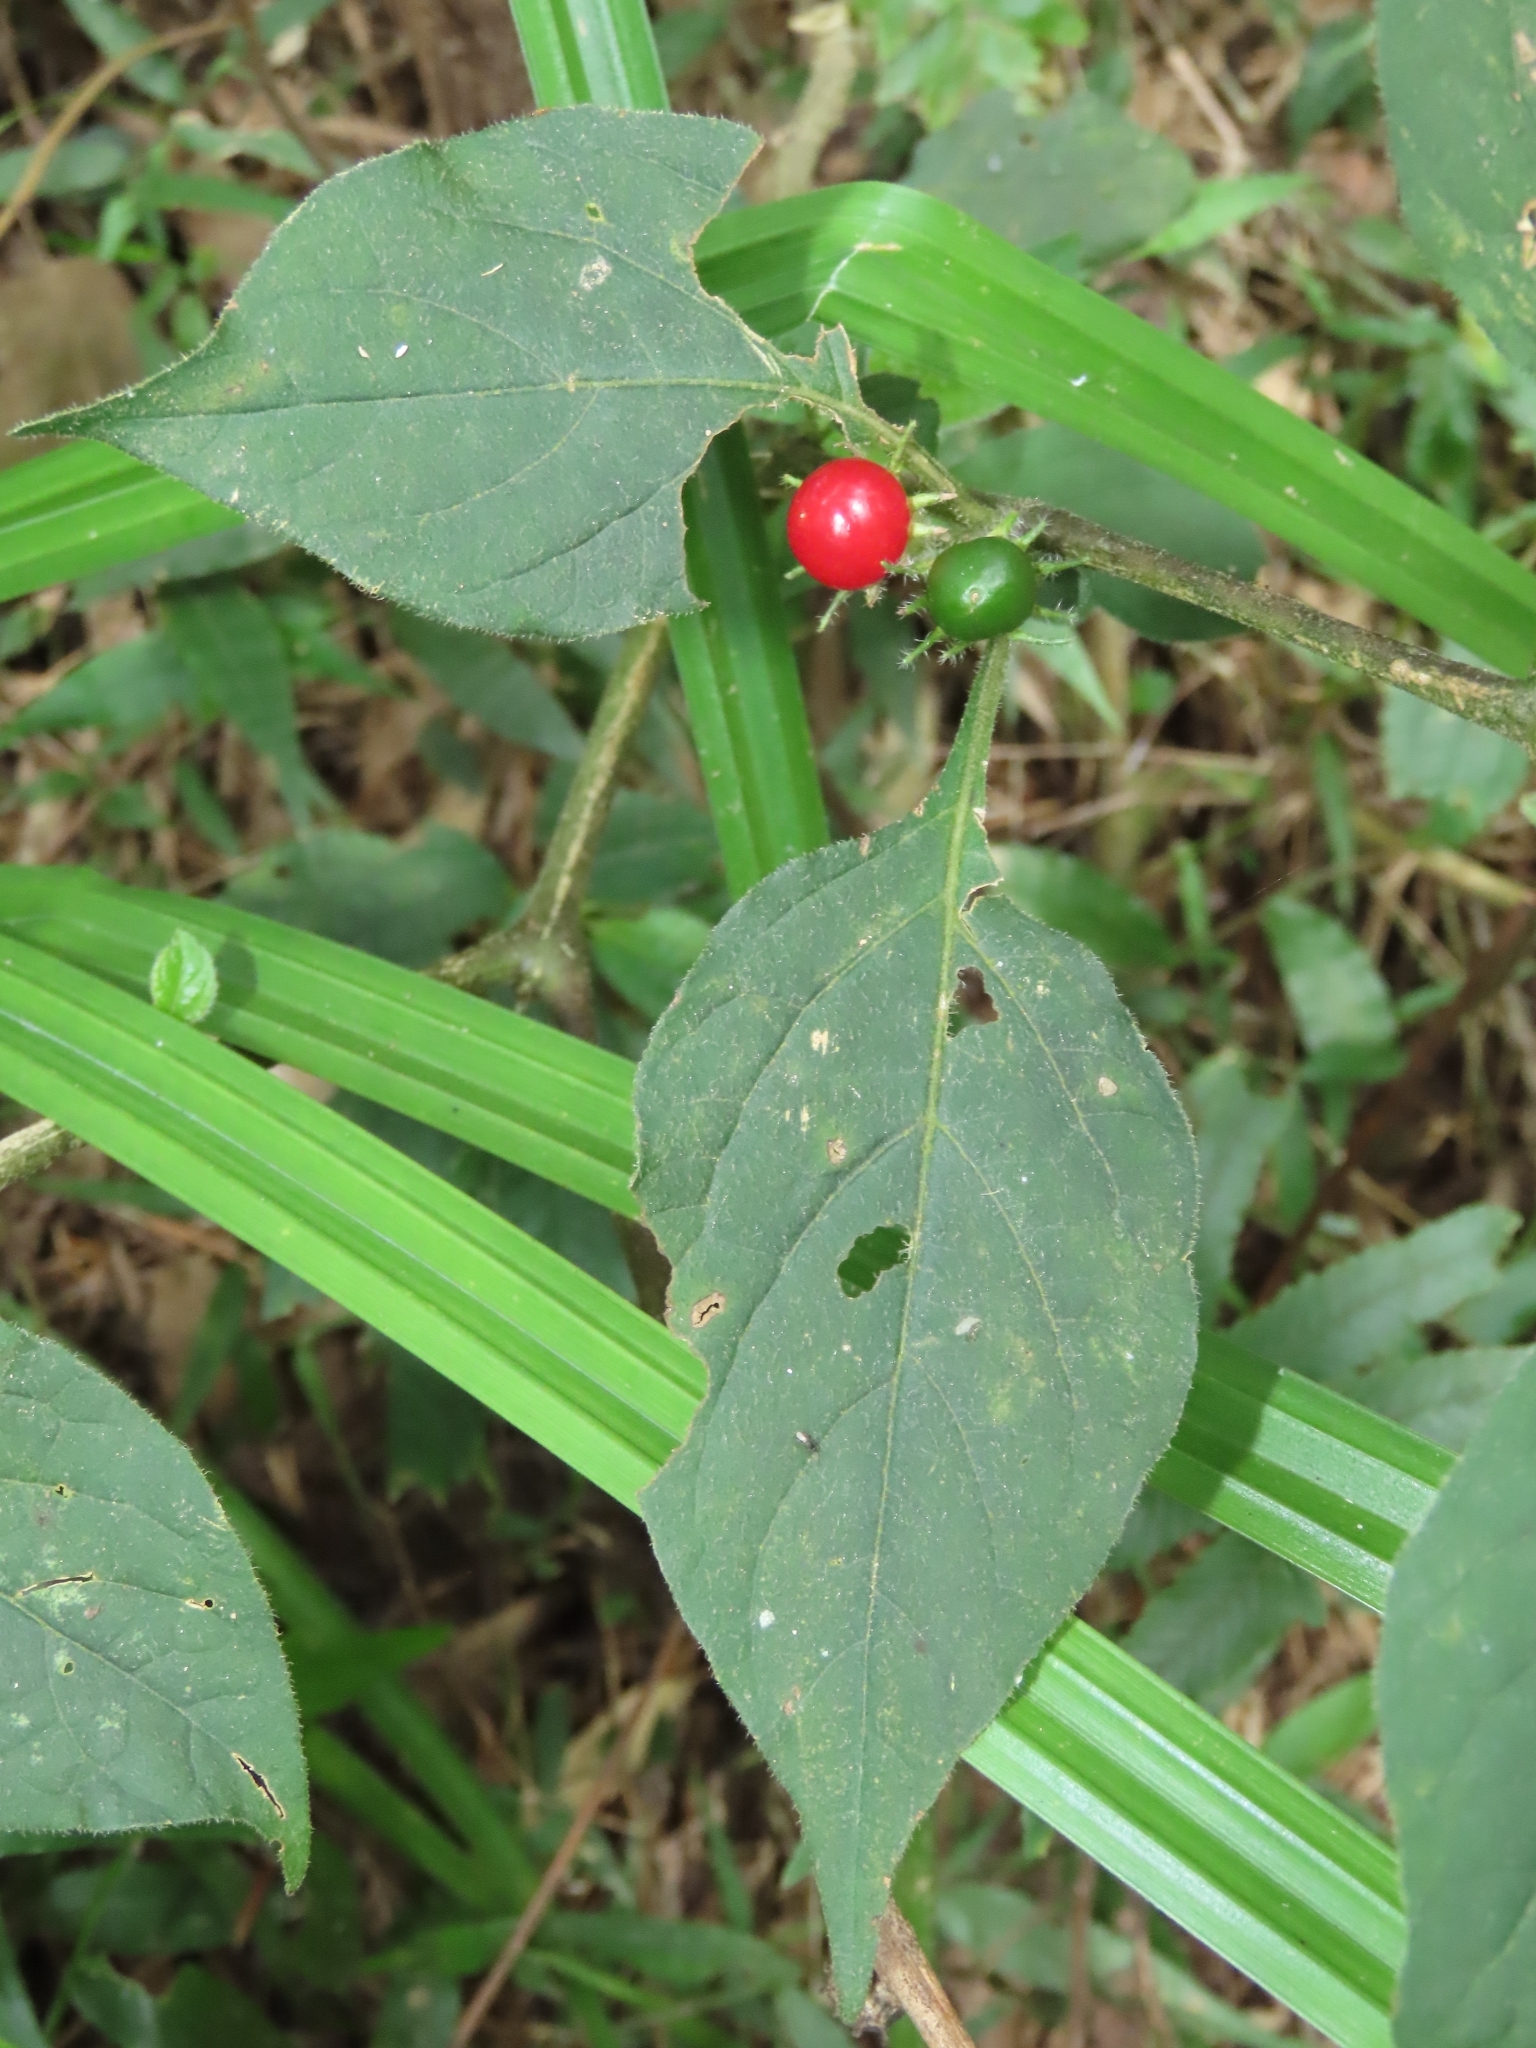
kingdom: Plantae
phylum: Tracheophyta
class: Magnoliopsida
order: Solanales
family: Solanaceae
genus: Lycianthes
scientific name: Lycianthes biflora
